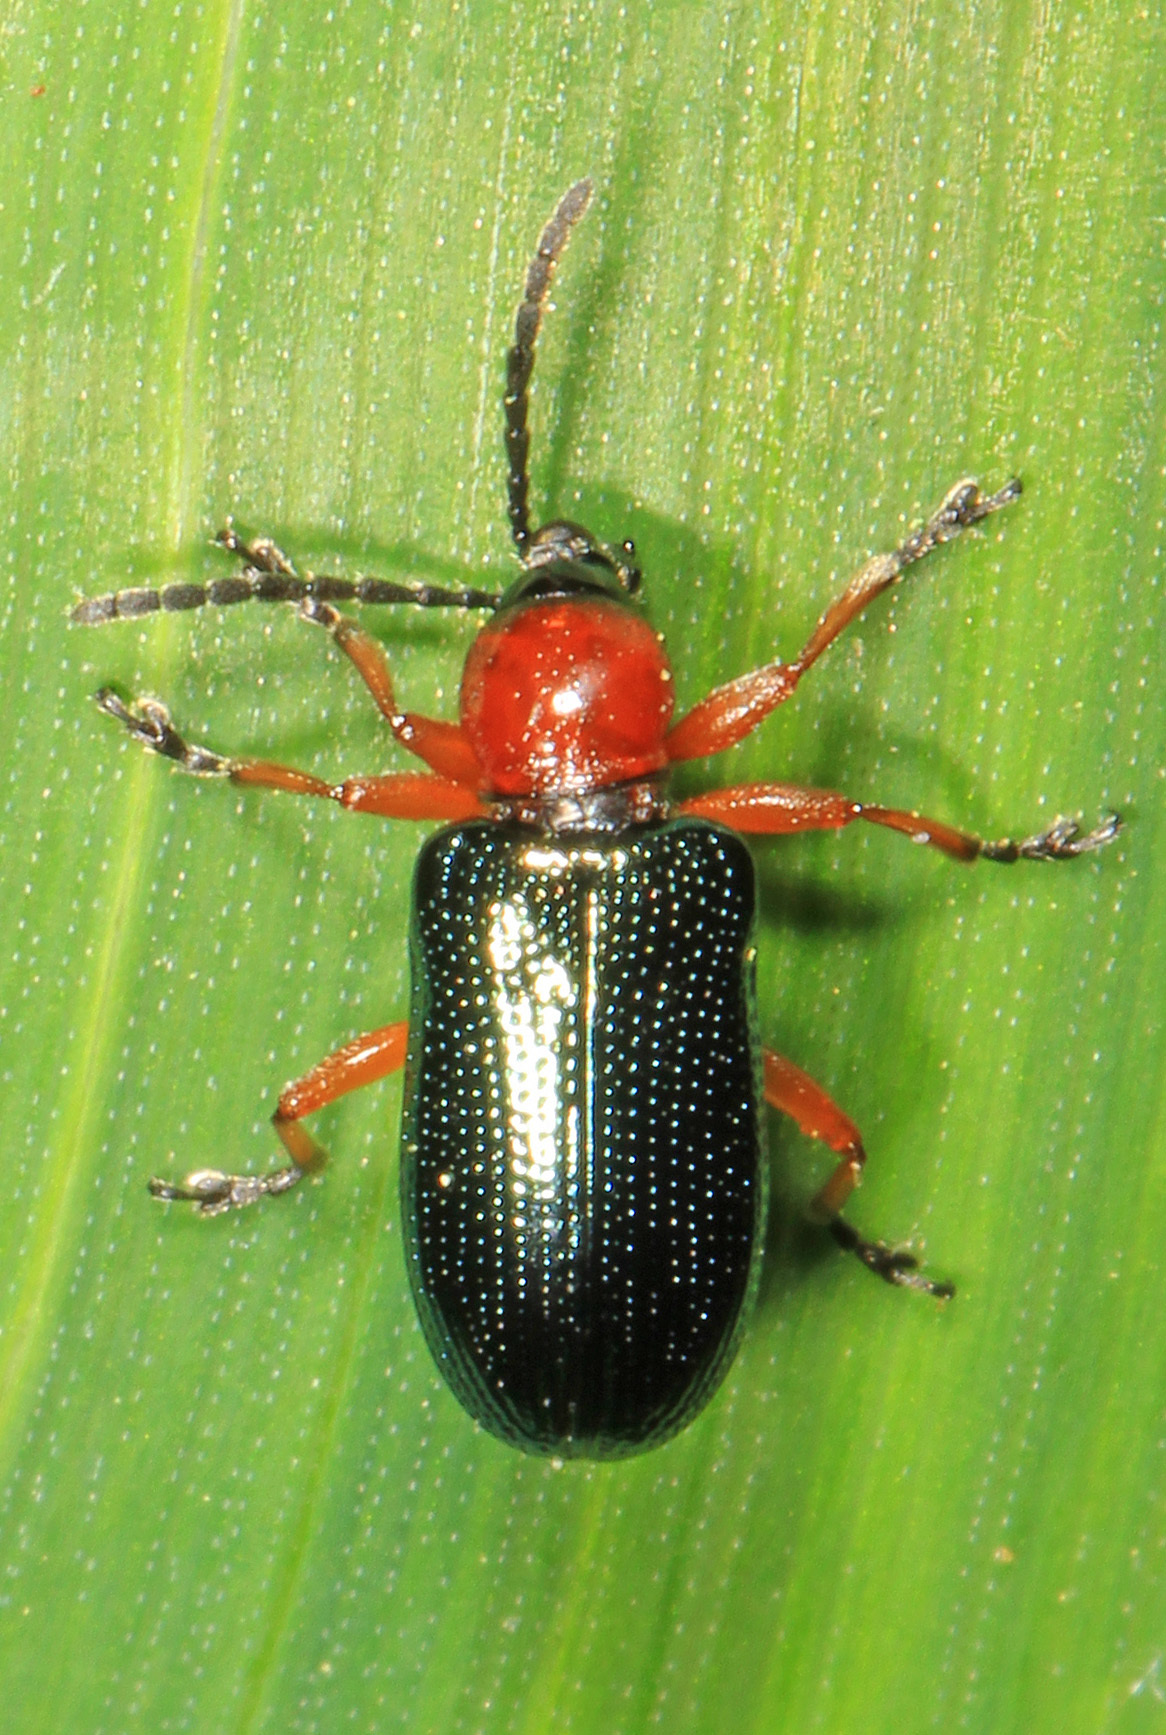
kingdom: Animalia
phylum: Arthropoda
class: Insecta
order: Coleoptera
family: Chrysomelidae
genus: Oulema
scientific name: Oulema melanopus
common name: Cereal leaf beetle
